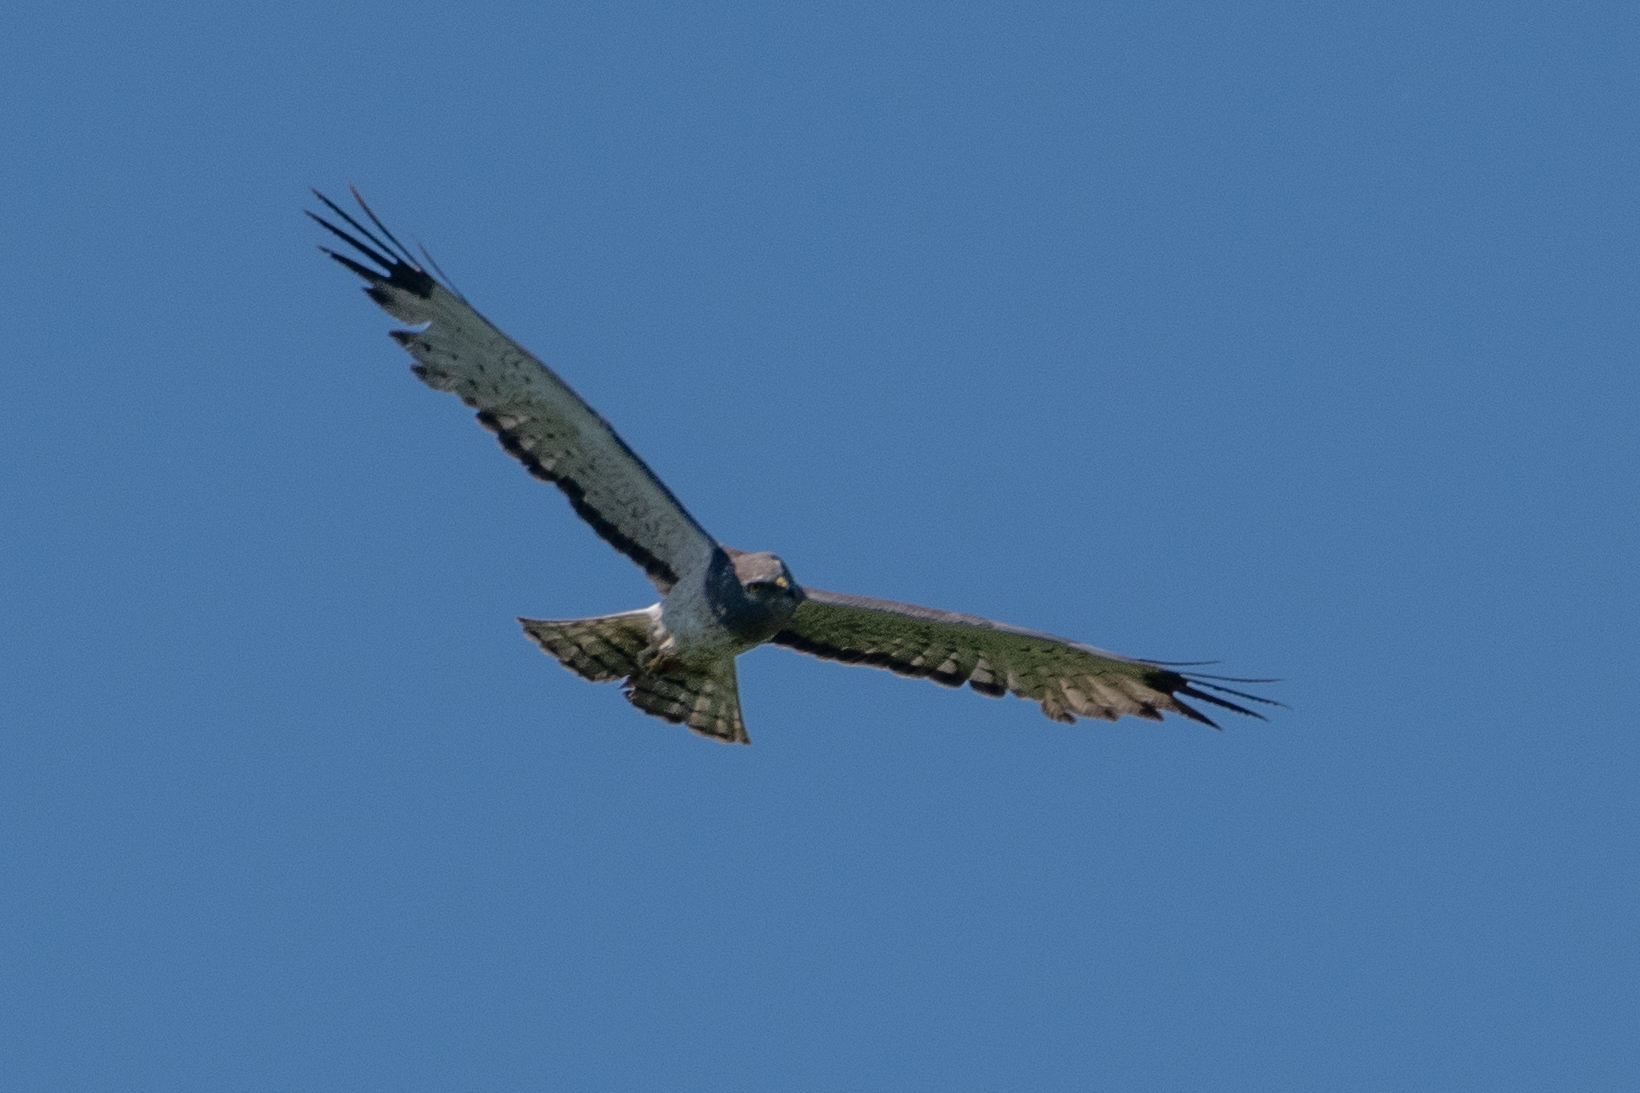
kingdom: Animalia
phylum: Chordata
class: Aves
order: Accipitriformes
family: Accipitridae
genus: Circus
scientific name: Circus cyaneus
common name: Hen harrier
